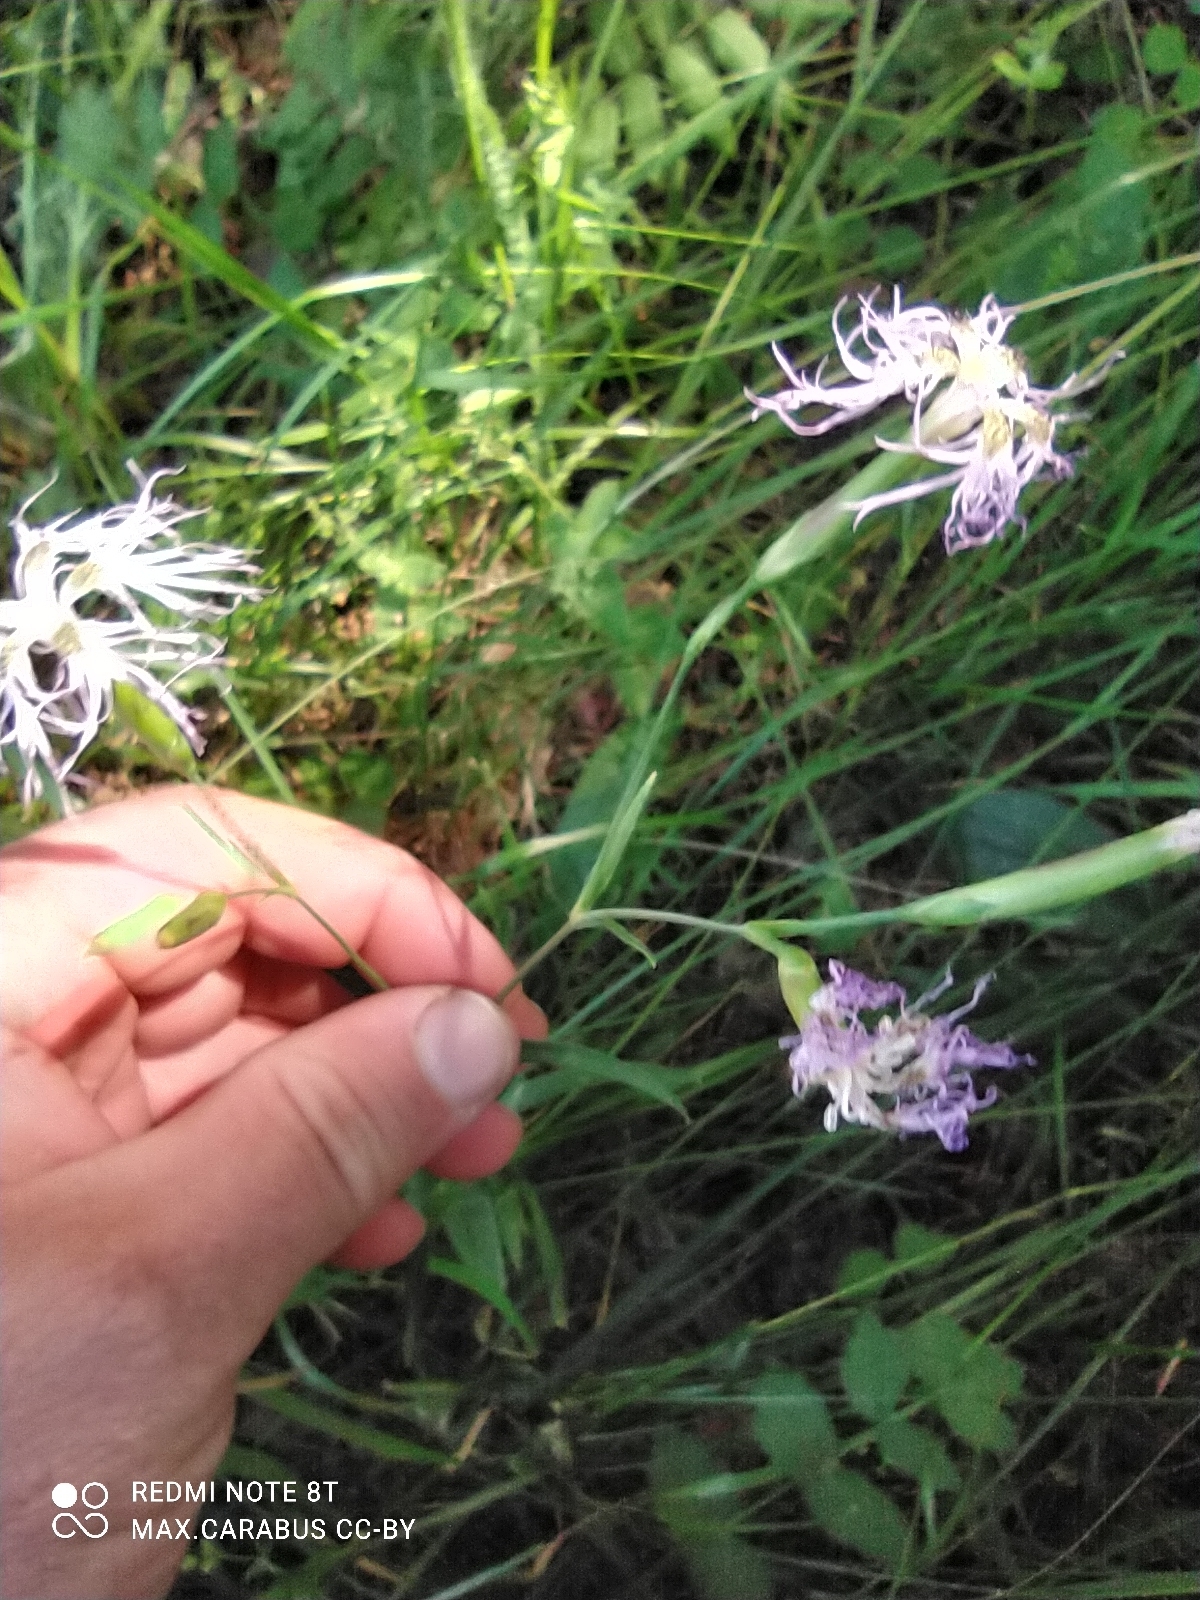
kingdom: Plantae
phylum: Tracheophyta
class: Magnoliopsida
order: Caryophyllales
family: Caryophyllaceae
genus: Dianthus
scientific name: Dianthus superbus
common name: Fringed pink
